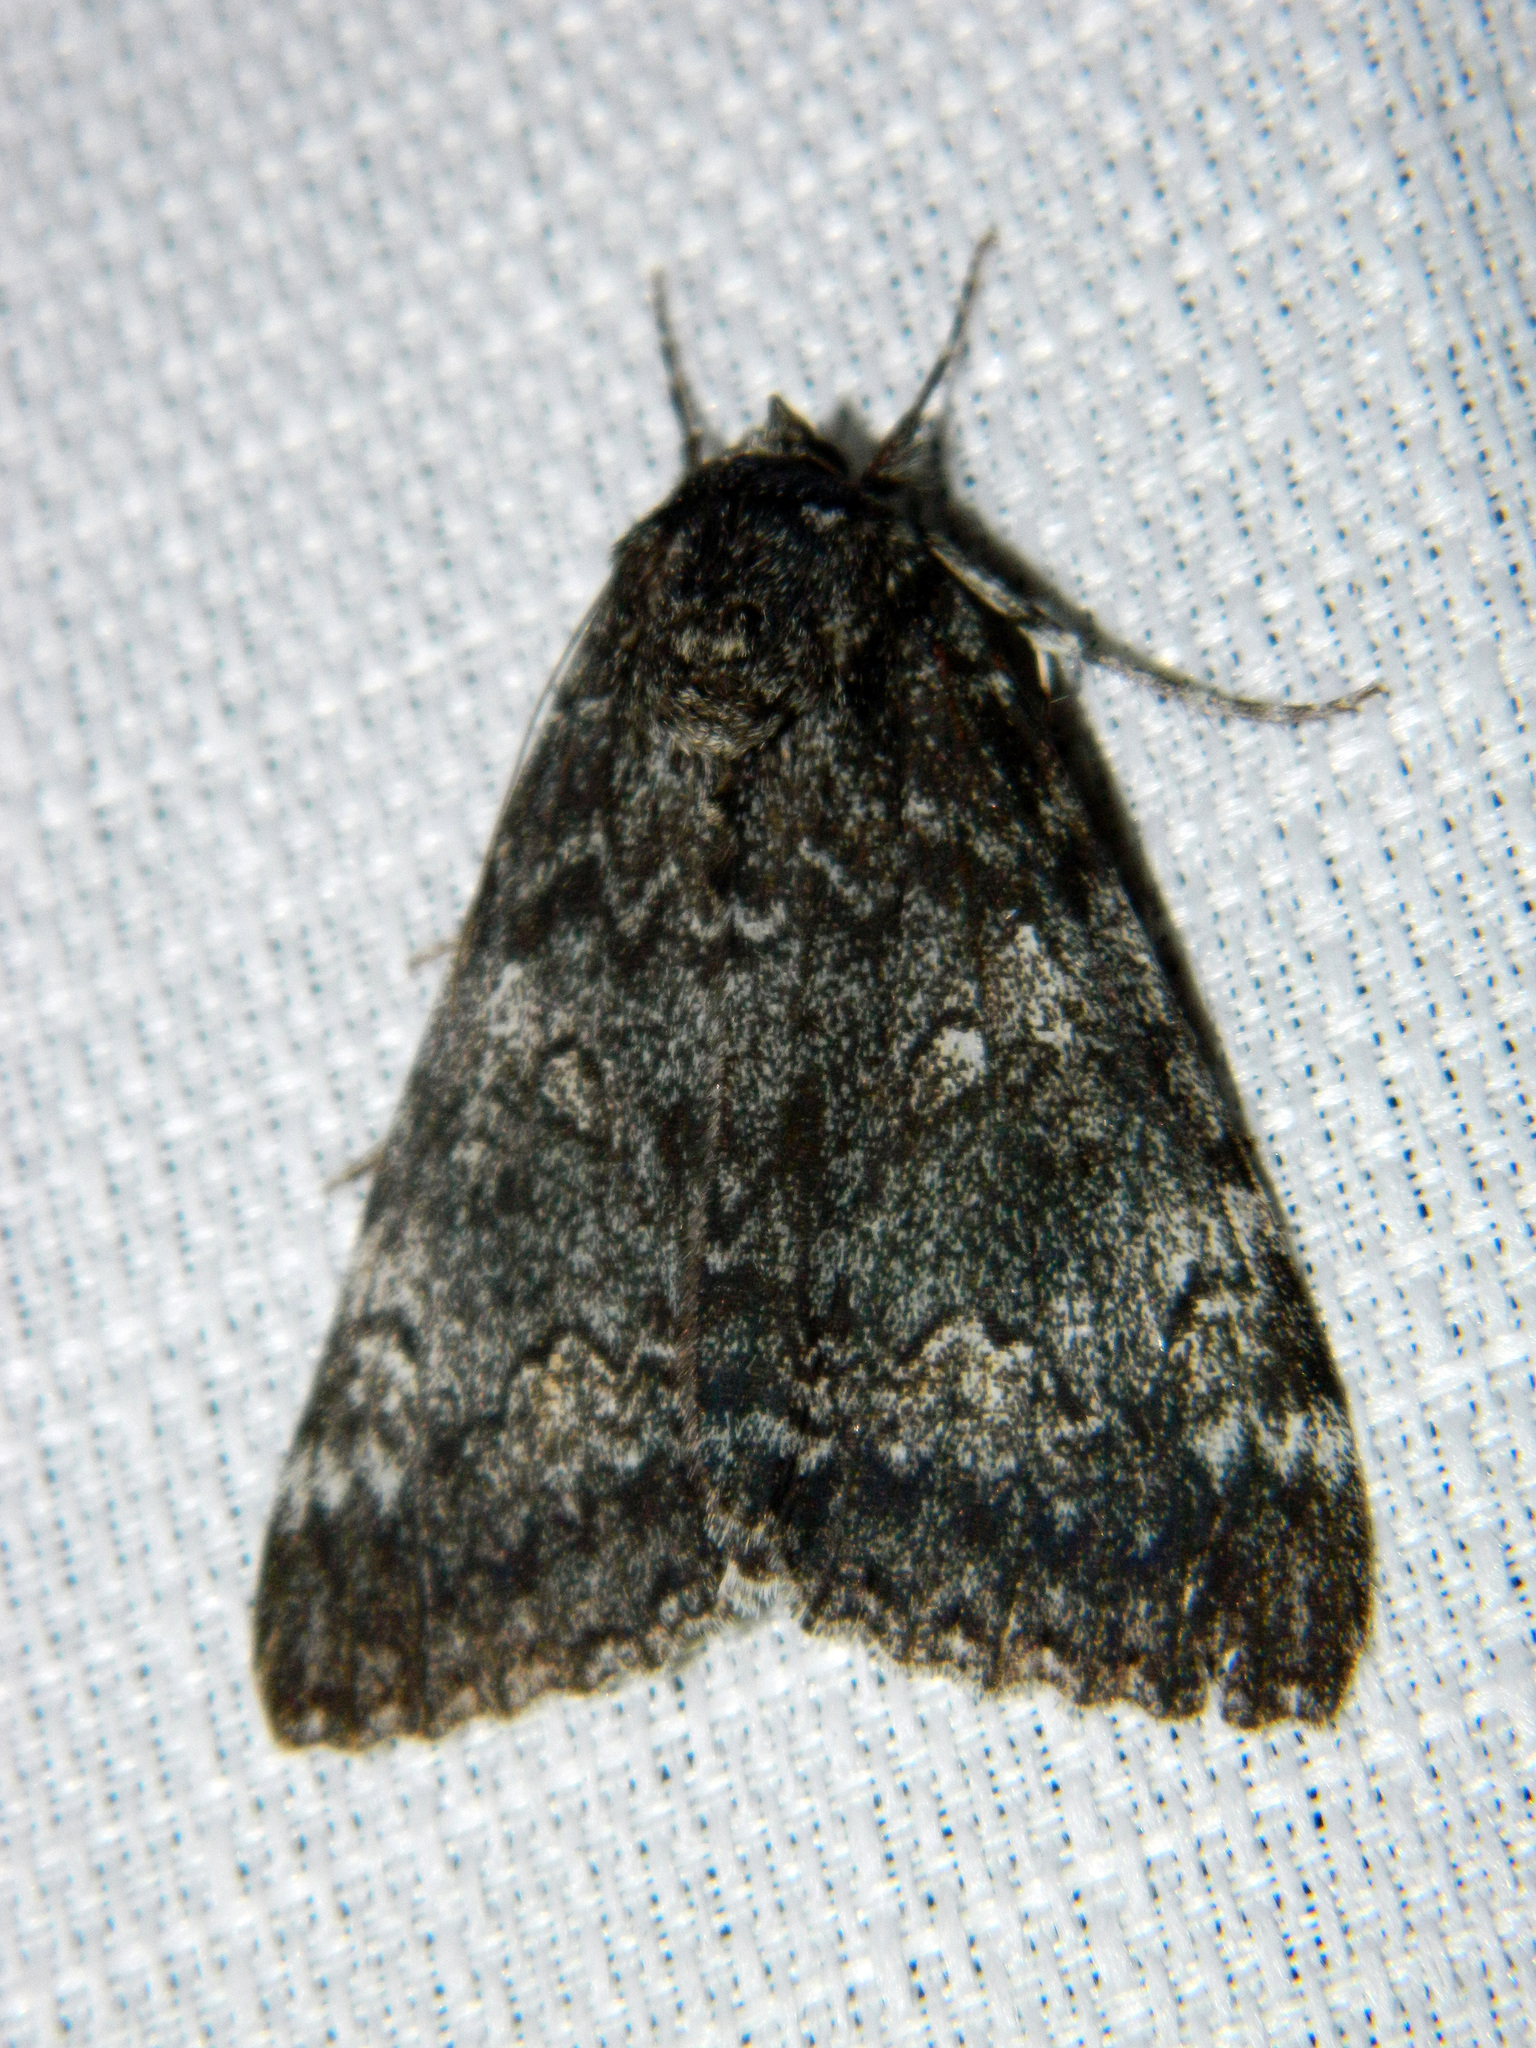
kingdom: Animalia
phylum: Arthropoda
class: Insecta
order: Lepidoptera
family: Erebidae
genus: Catocala
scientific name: Catocala briseis
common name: Briseis underwing
